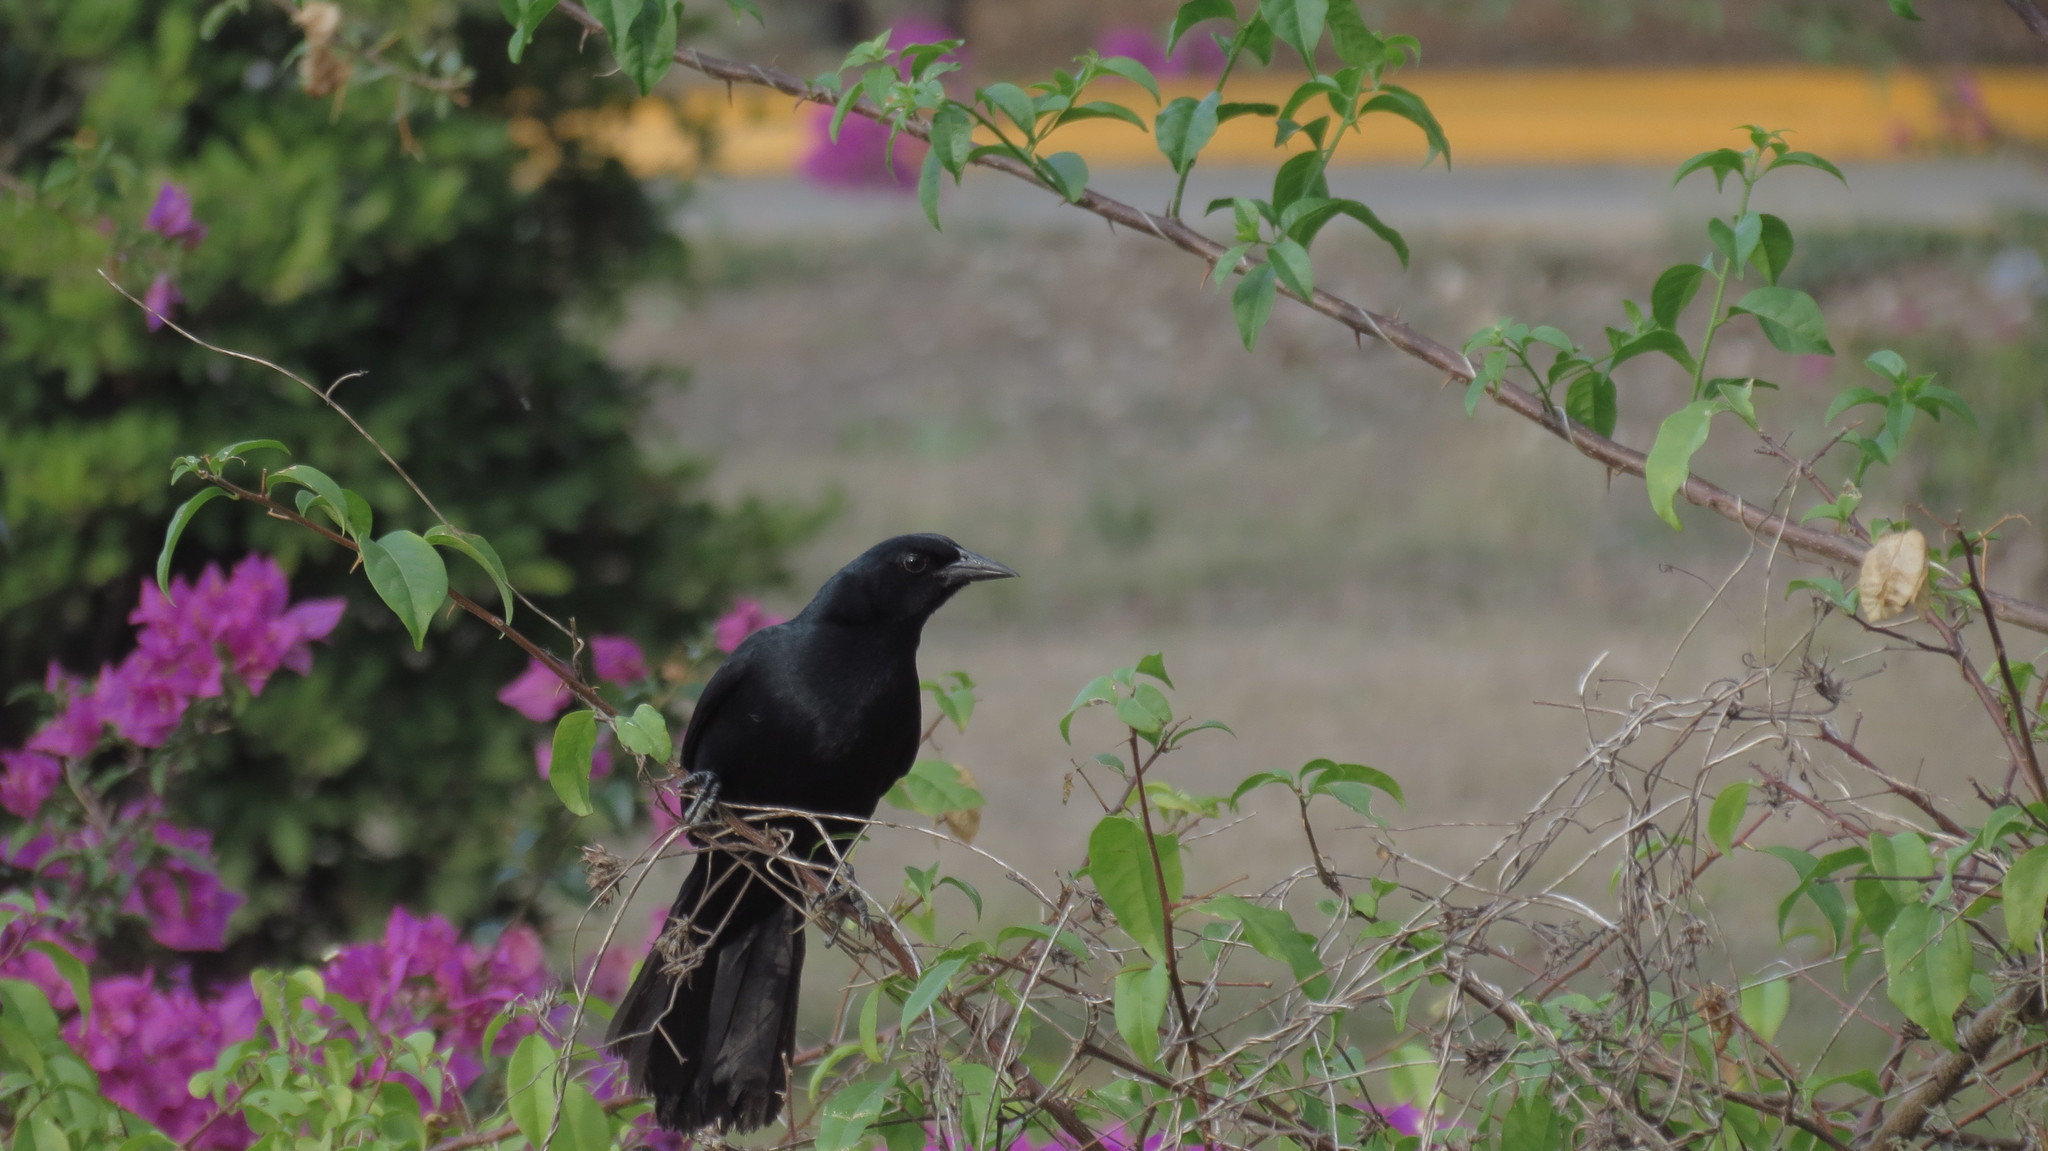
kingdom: Animalia
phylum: Chordata
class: Aves
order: Passeriformes
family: Icteridae
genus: Dives
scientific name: Dives dives
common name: Melodious blackbird
